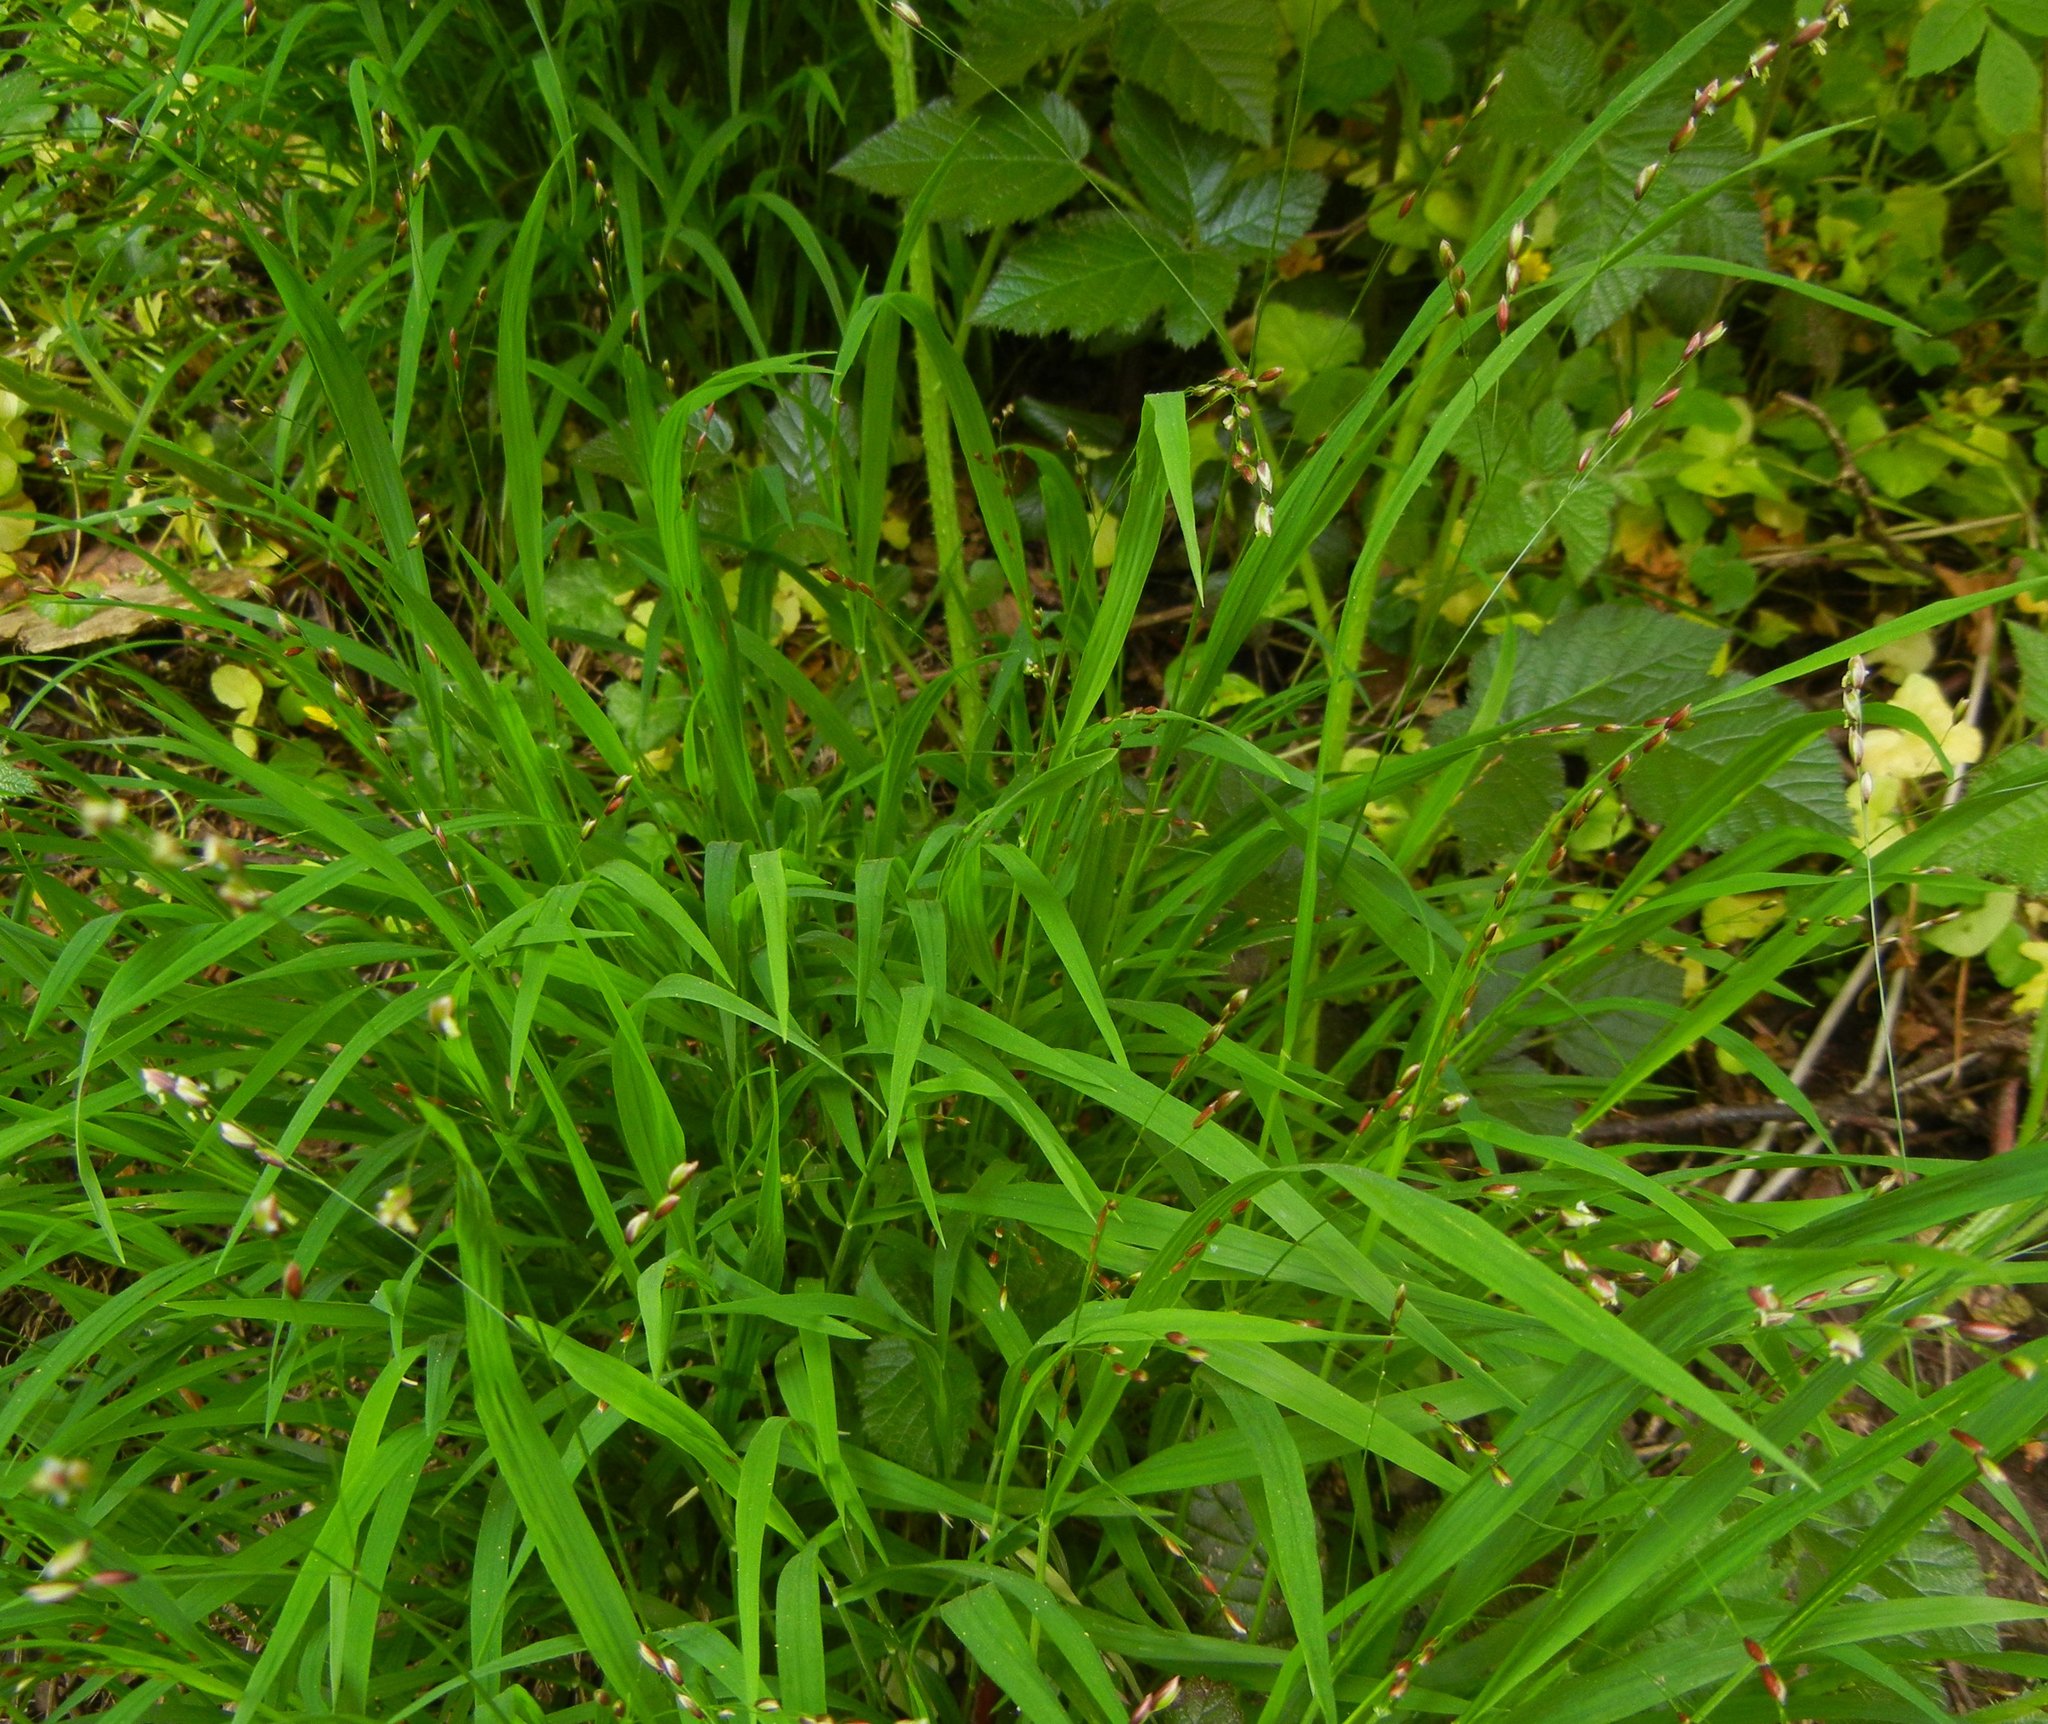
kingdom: Plantae
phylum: Tracheophyta
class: Liliopsida
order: Poales
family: Poaceae
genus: Melica
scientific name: Melica uniflora
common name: Wood melick
